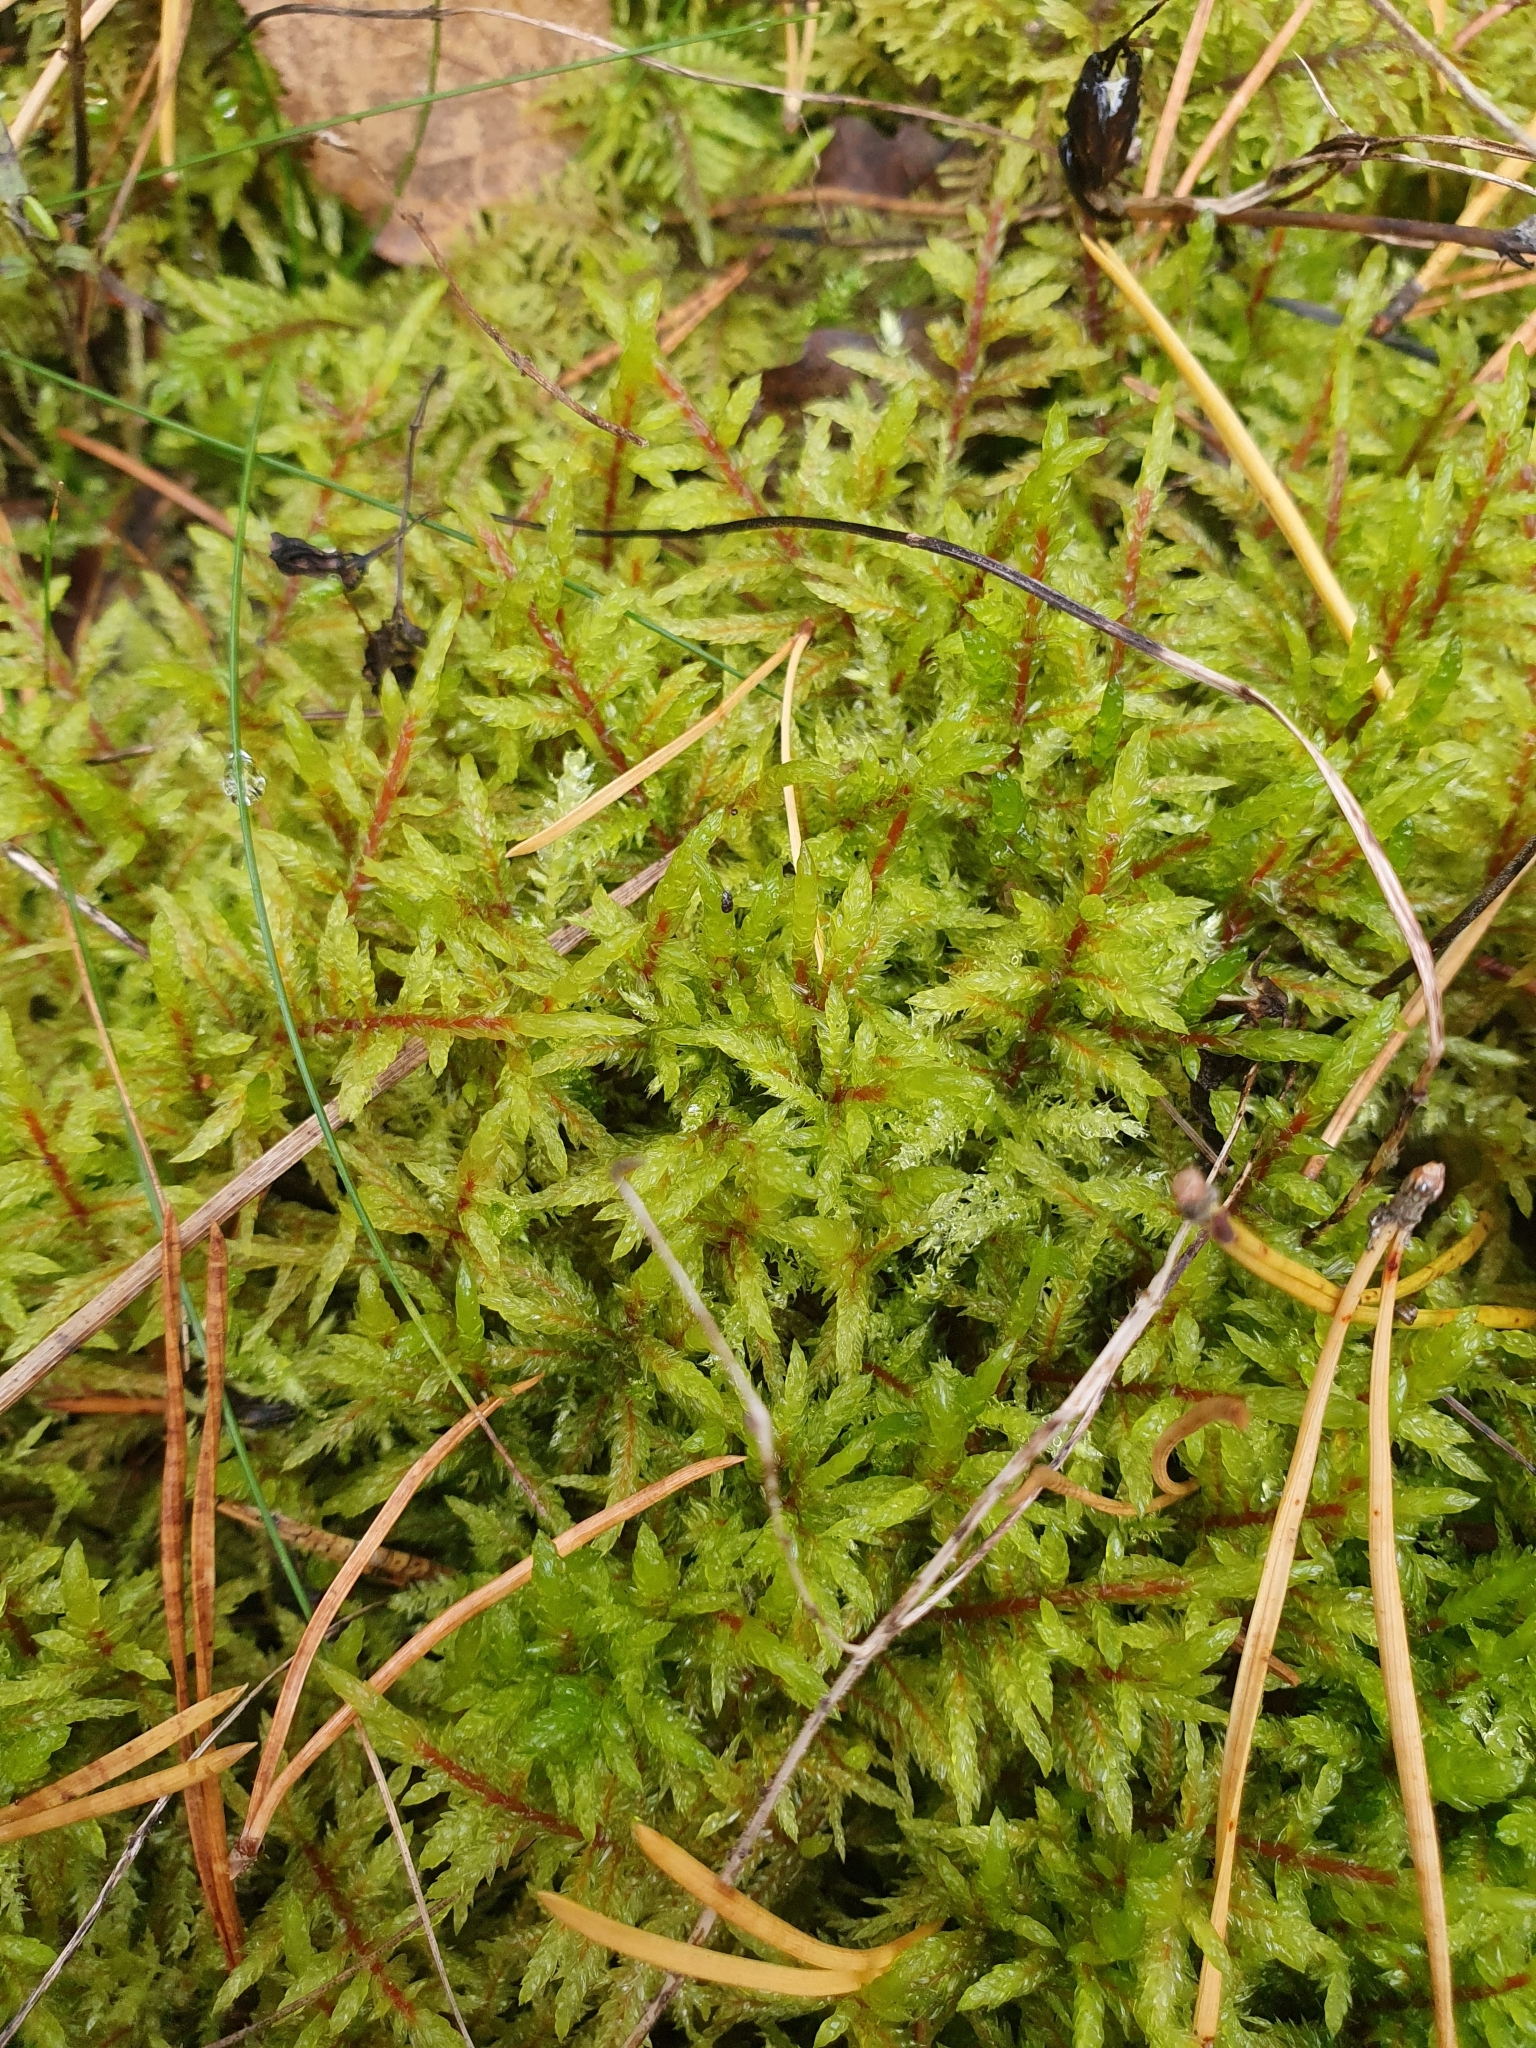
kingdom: Plantae
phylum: Bryophyta
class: Bryopsida
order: Hypnales
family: Hylocomiaceae
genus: Pleurozium
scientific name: Pleurozium schreberi
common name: Red-stemmed feather moss
